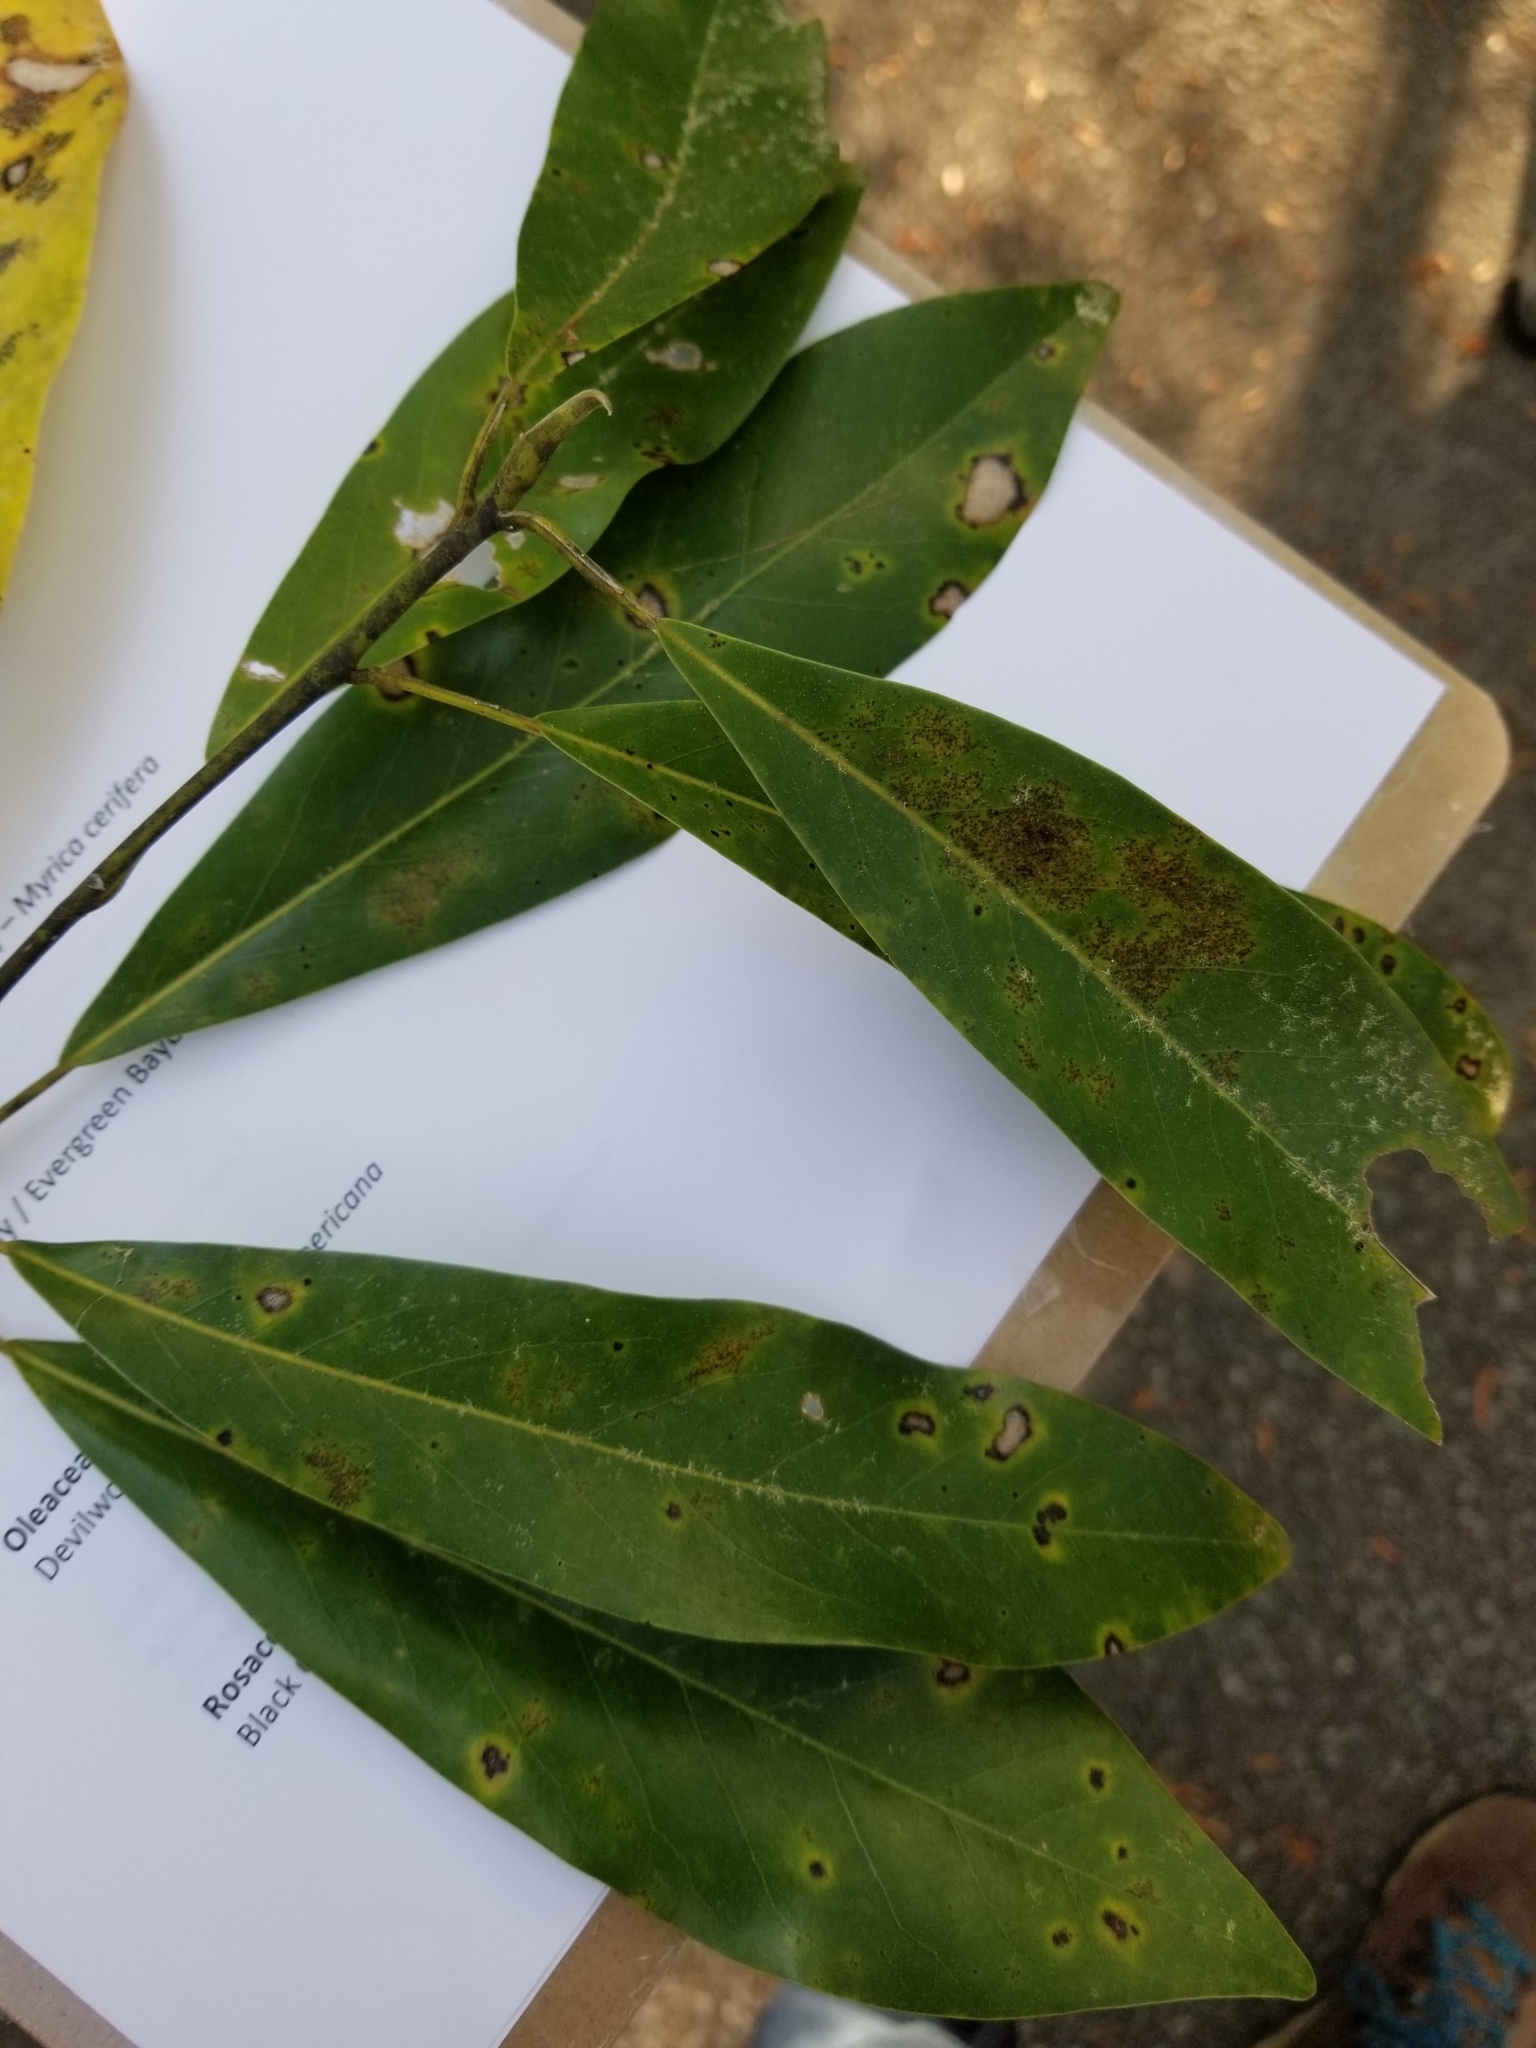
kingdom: Plantae
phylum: Tracheophyta
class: Magnoliopsida
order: Magnoliales
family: Magnoliaceae
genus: Magnolia
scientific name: Magnolia virginiana
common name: Swamp bay
